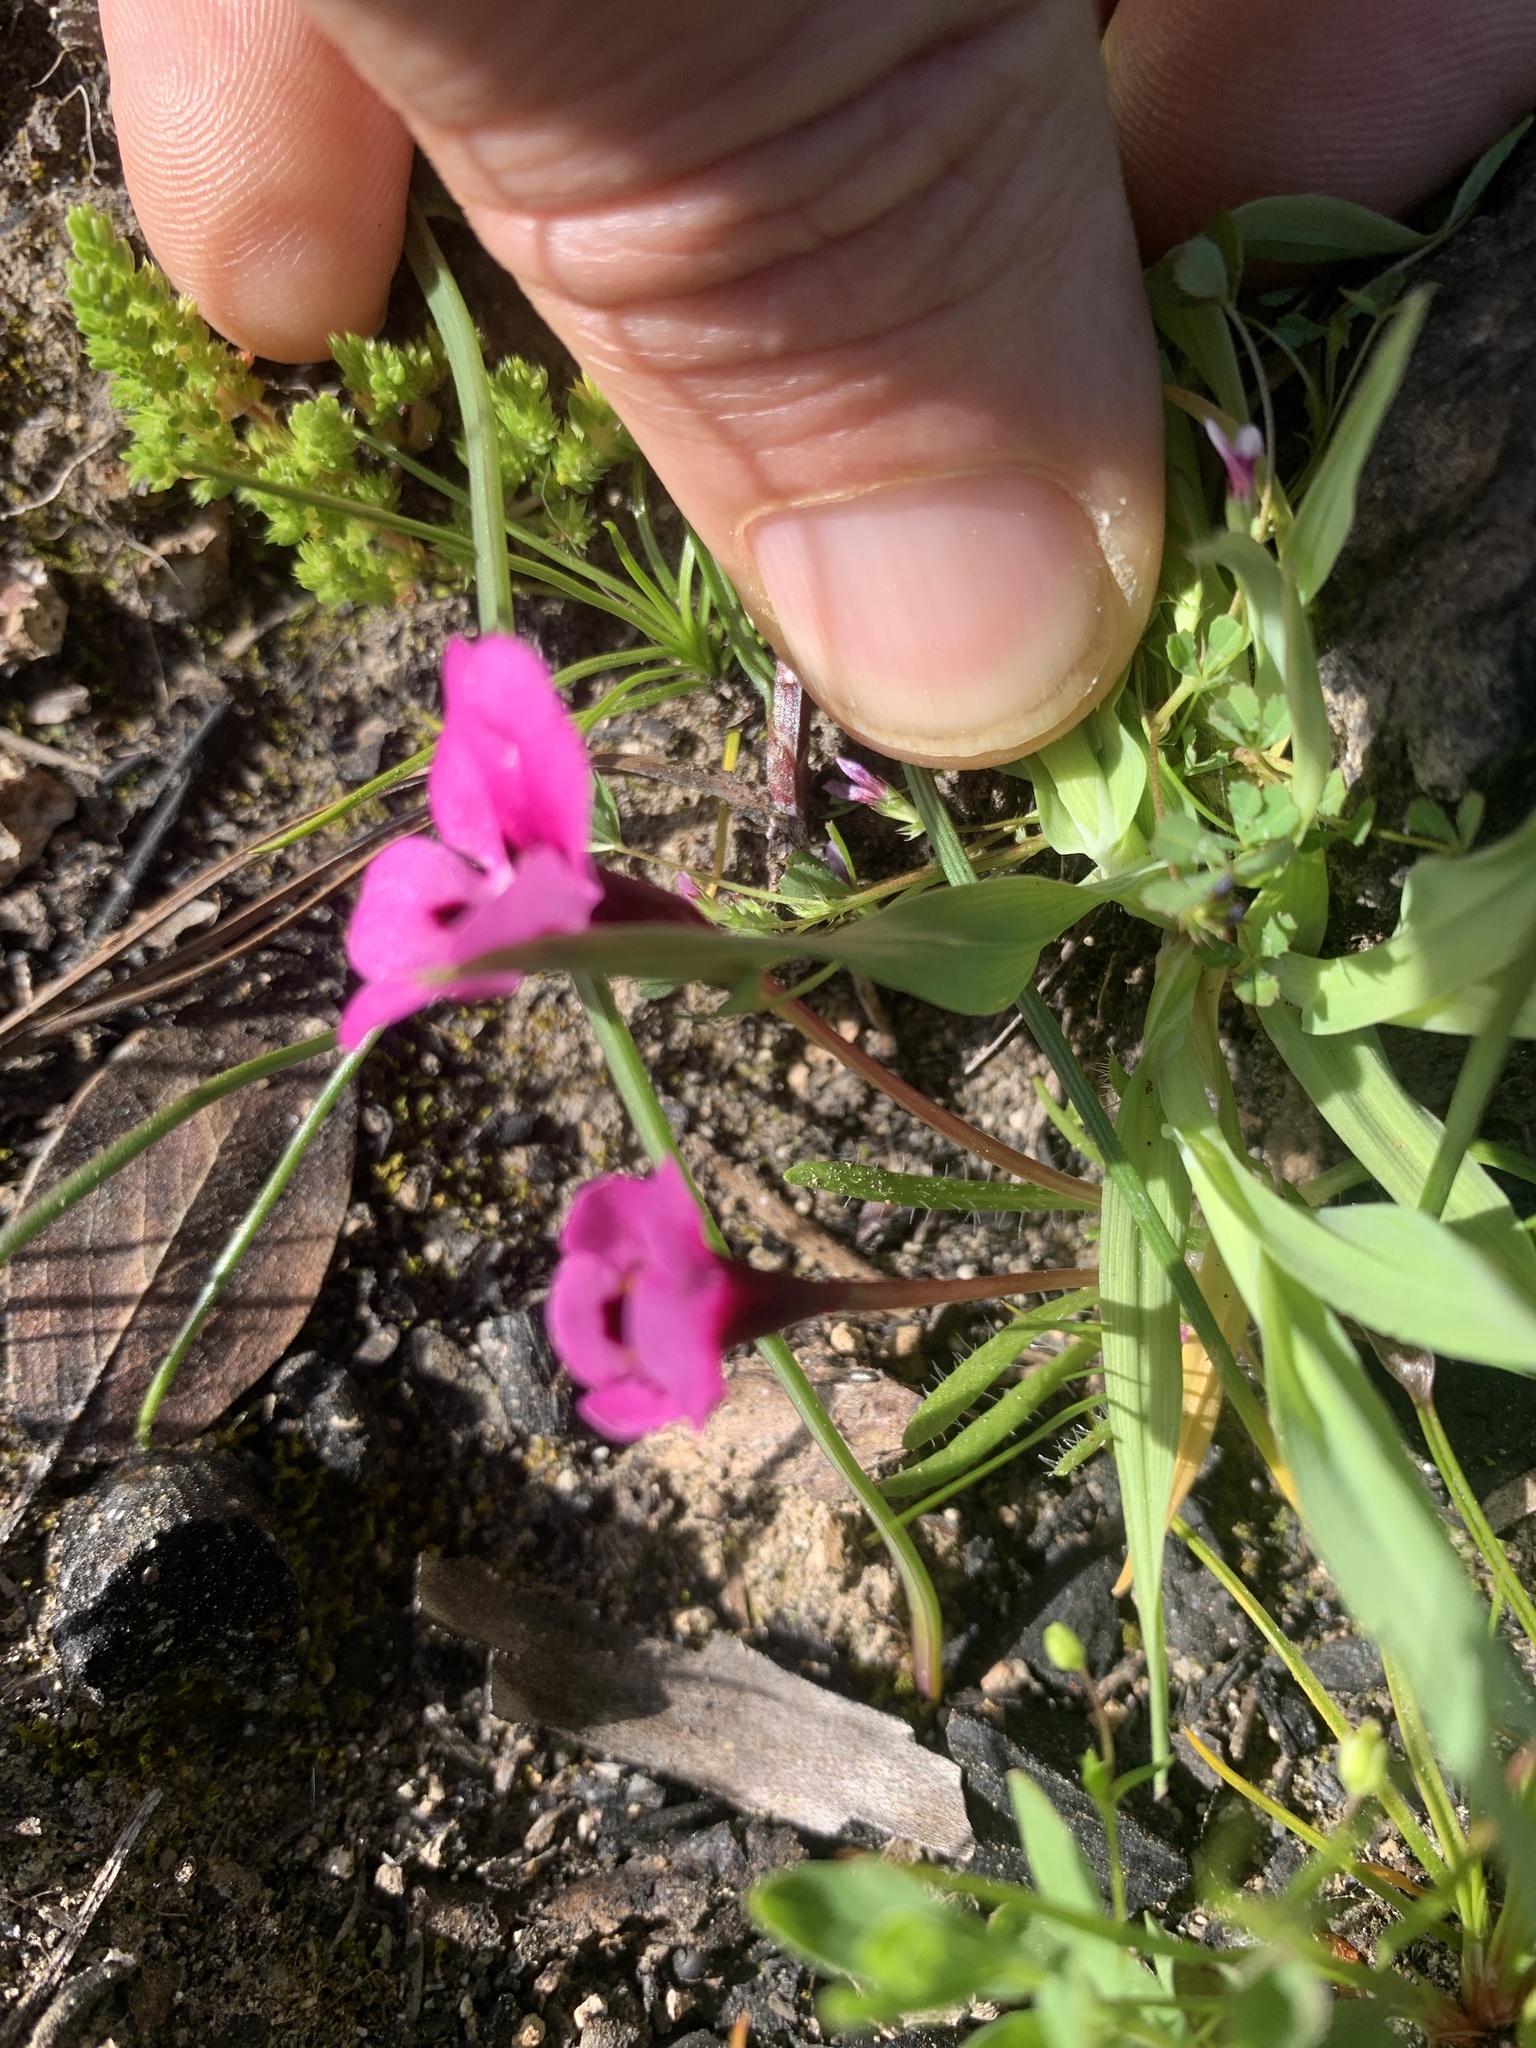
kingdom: Plantae
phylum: Tracheophyta
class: Magnoliopsida
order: Lamiales
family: Phrymaceae
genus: Diplacus
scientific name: Diplacus angustatus
